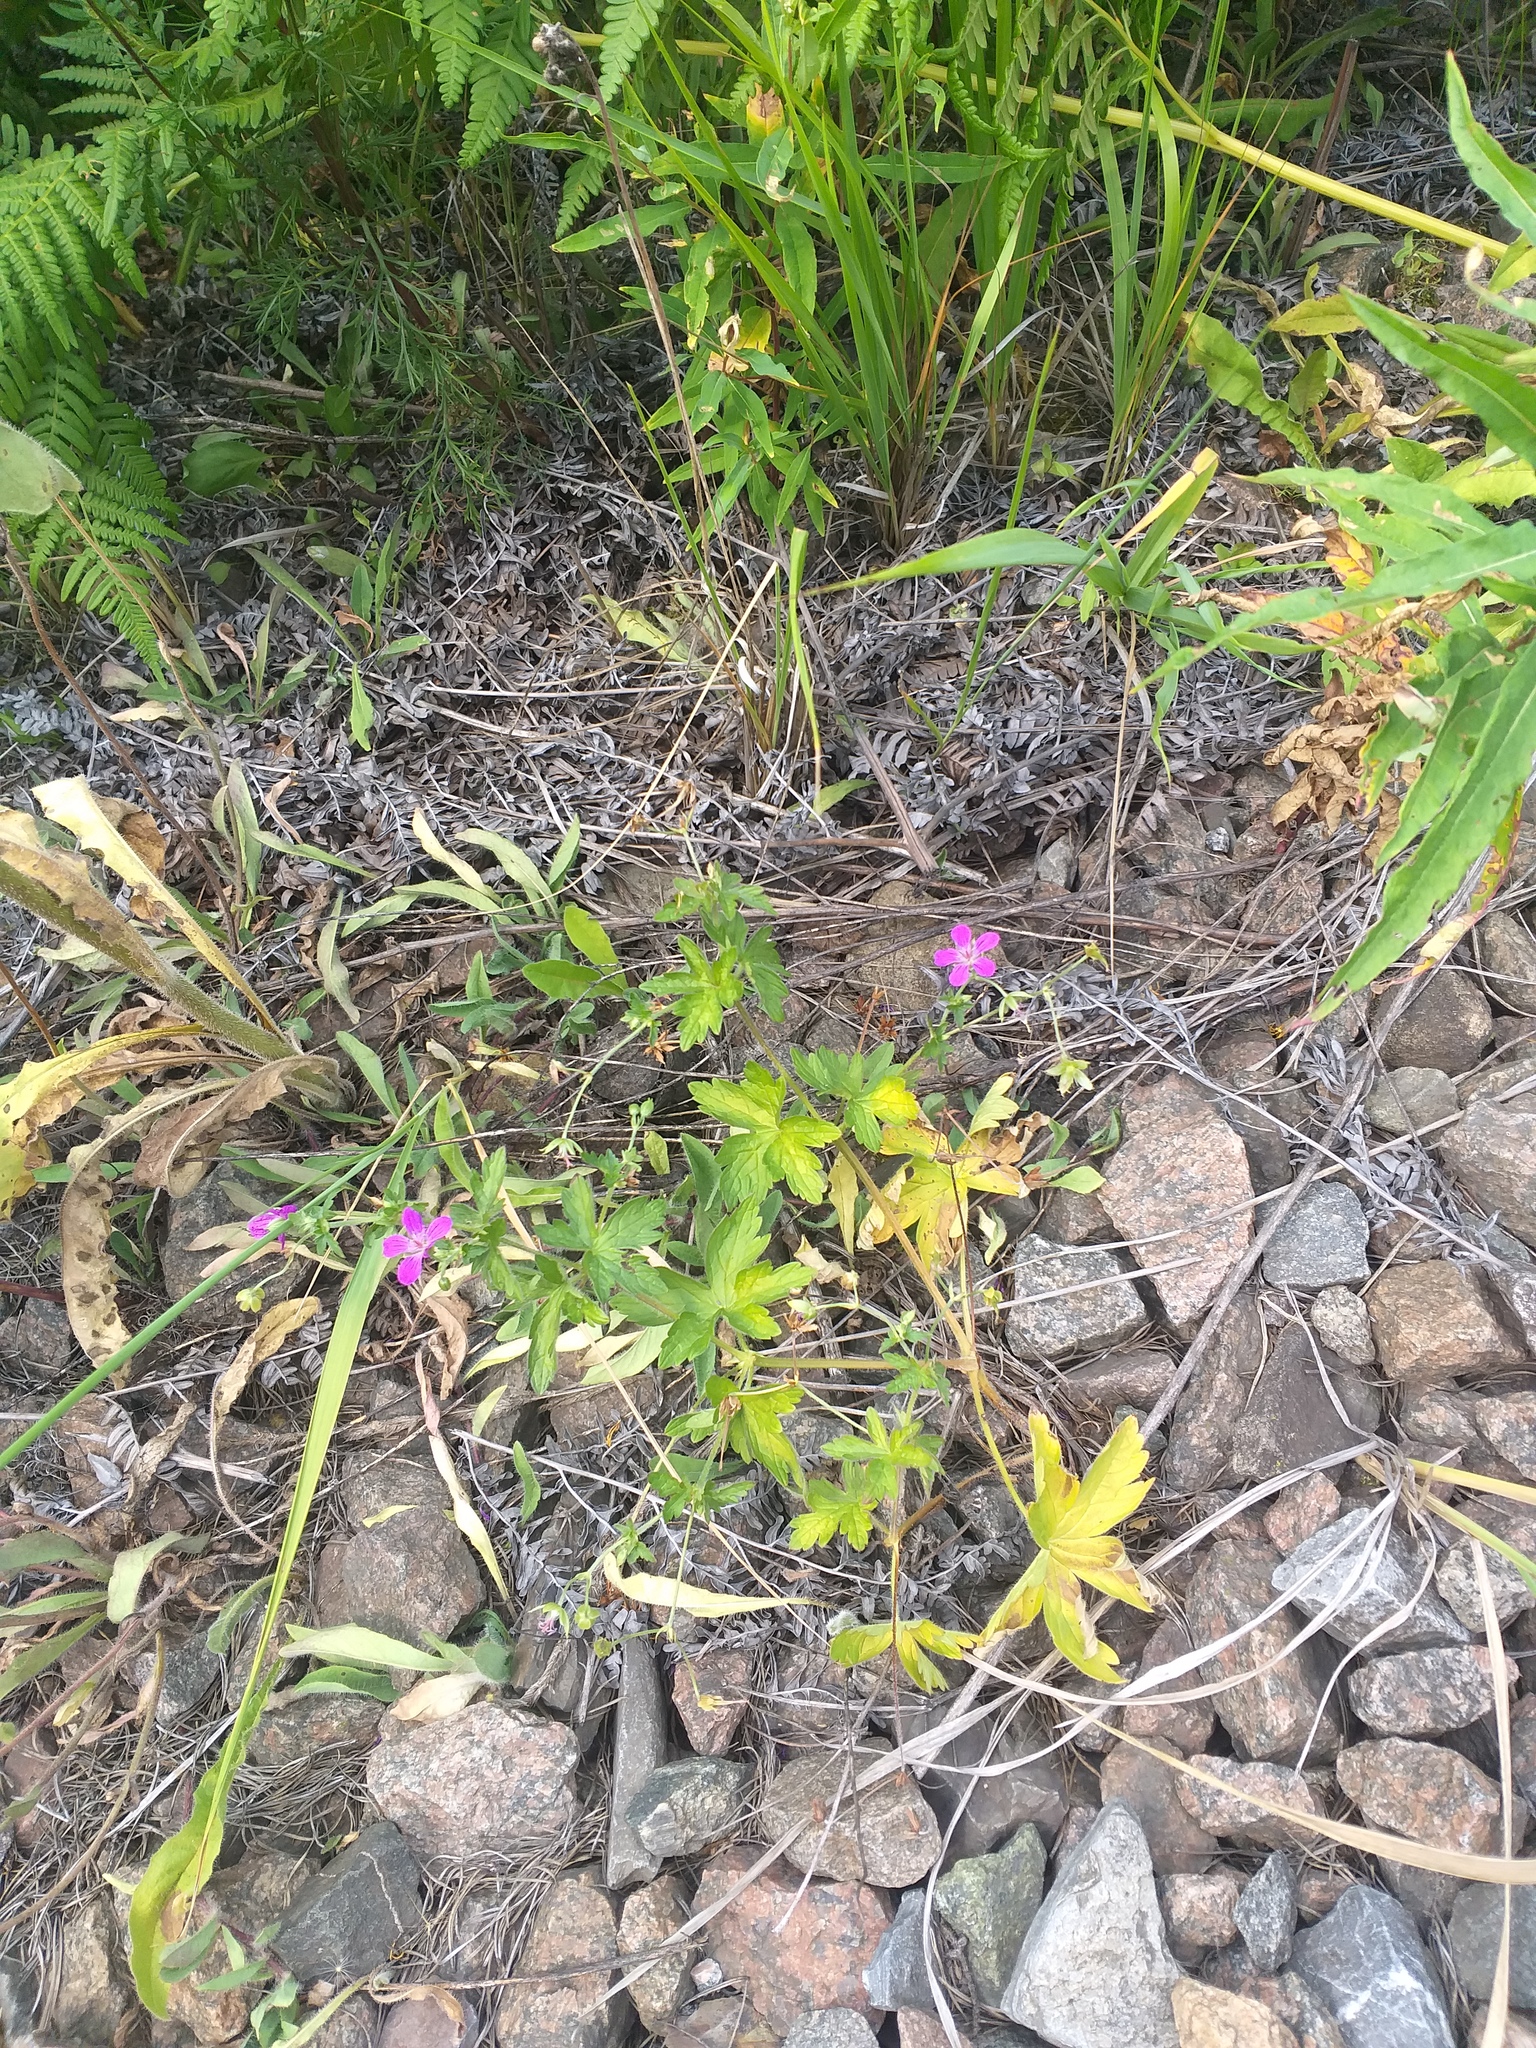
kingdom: Plantae
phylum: Tracheophyta
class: Magnoliopsida
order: Geraniales
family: Geraniaceae
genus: Geranium
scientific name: Geranium palustre
